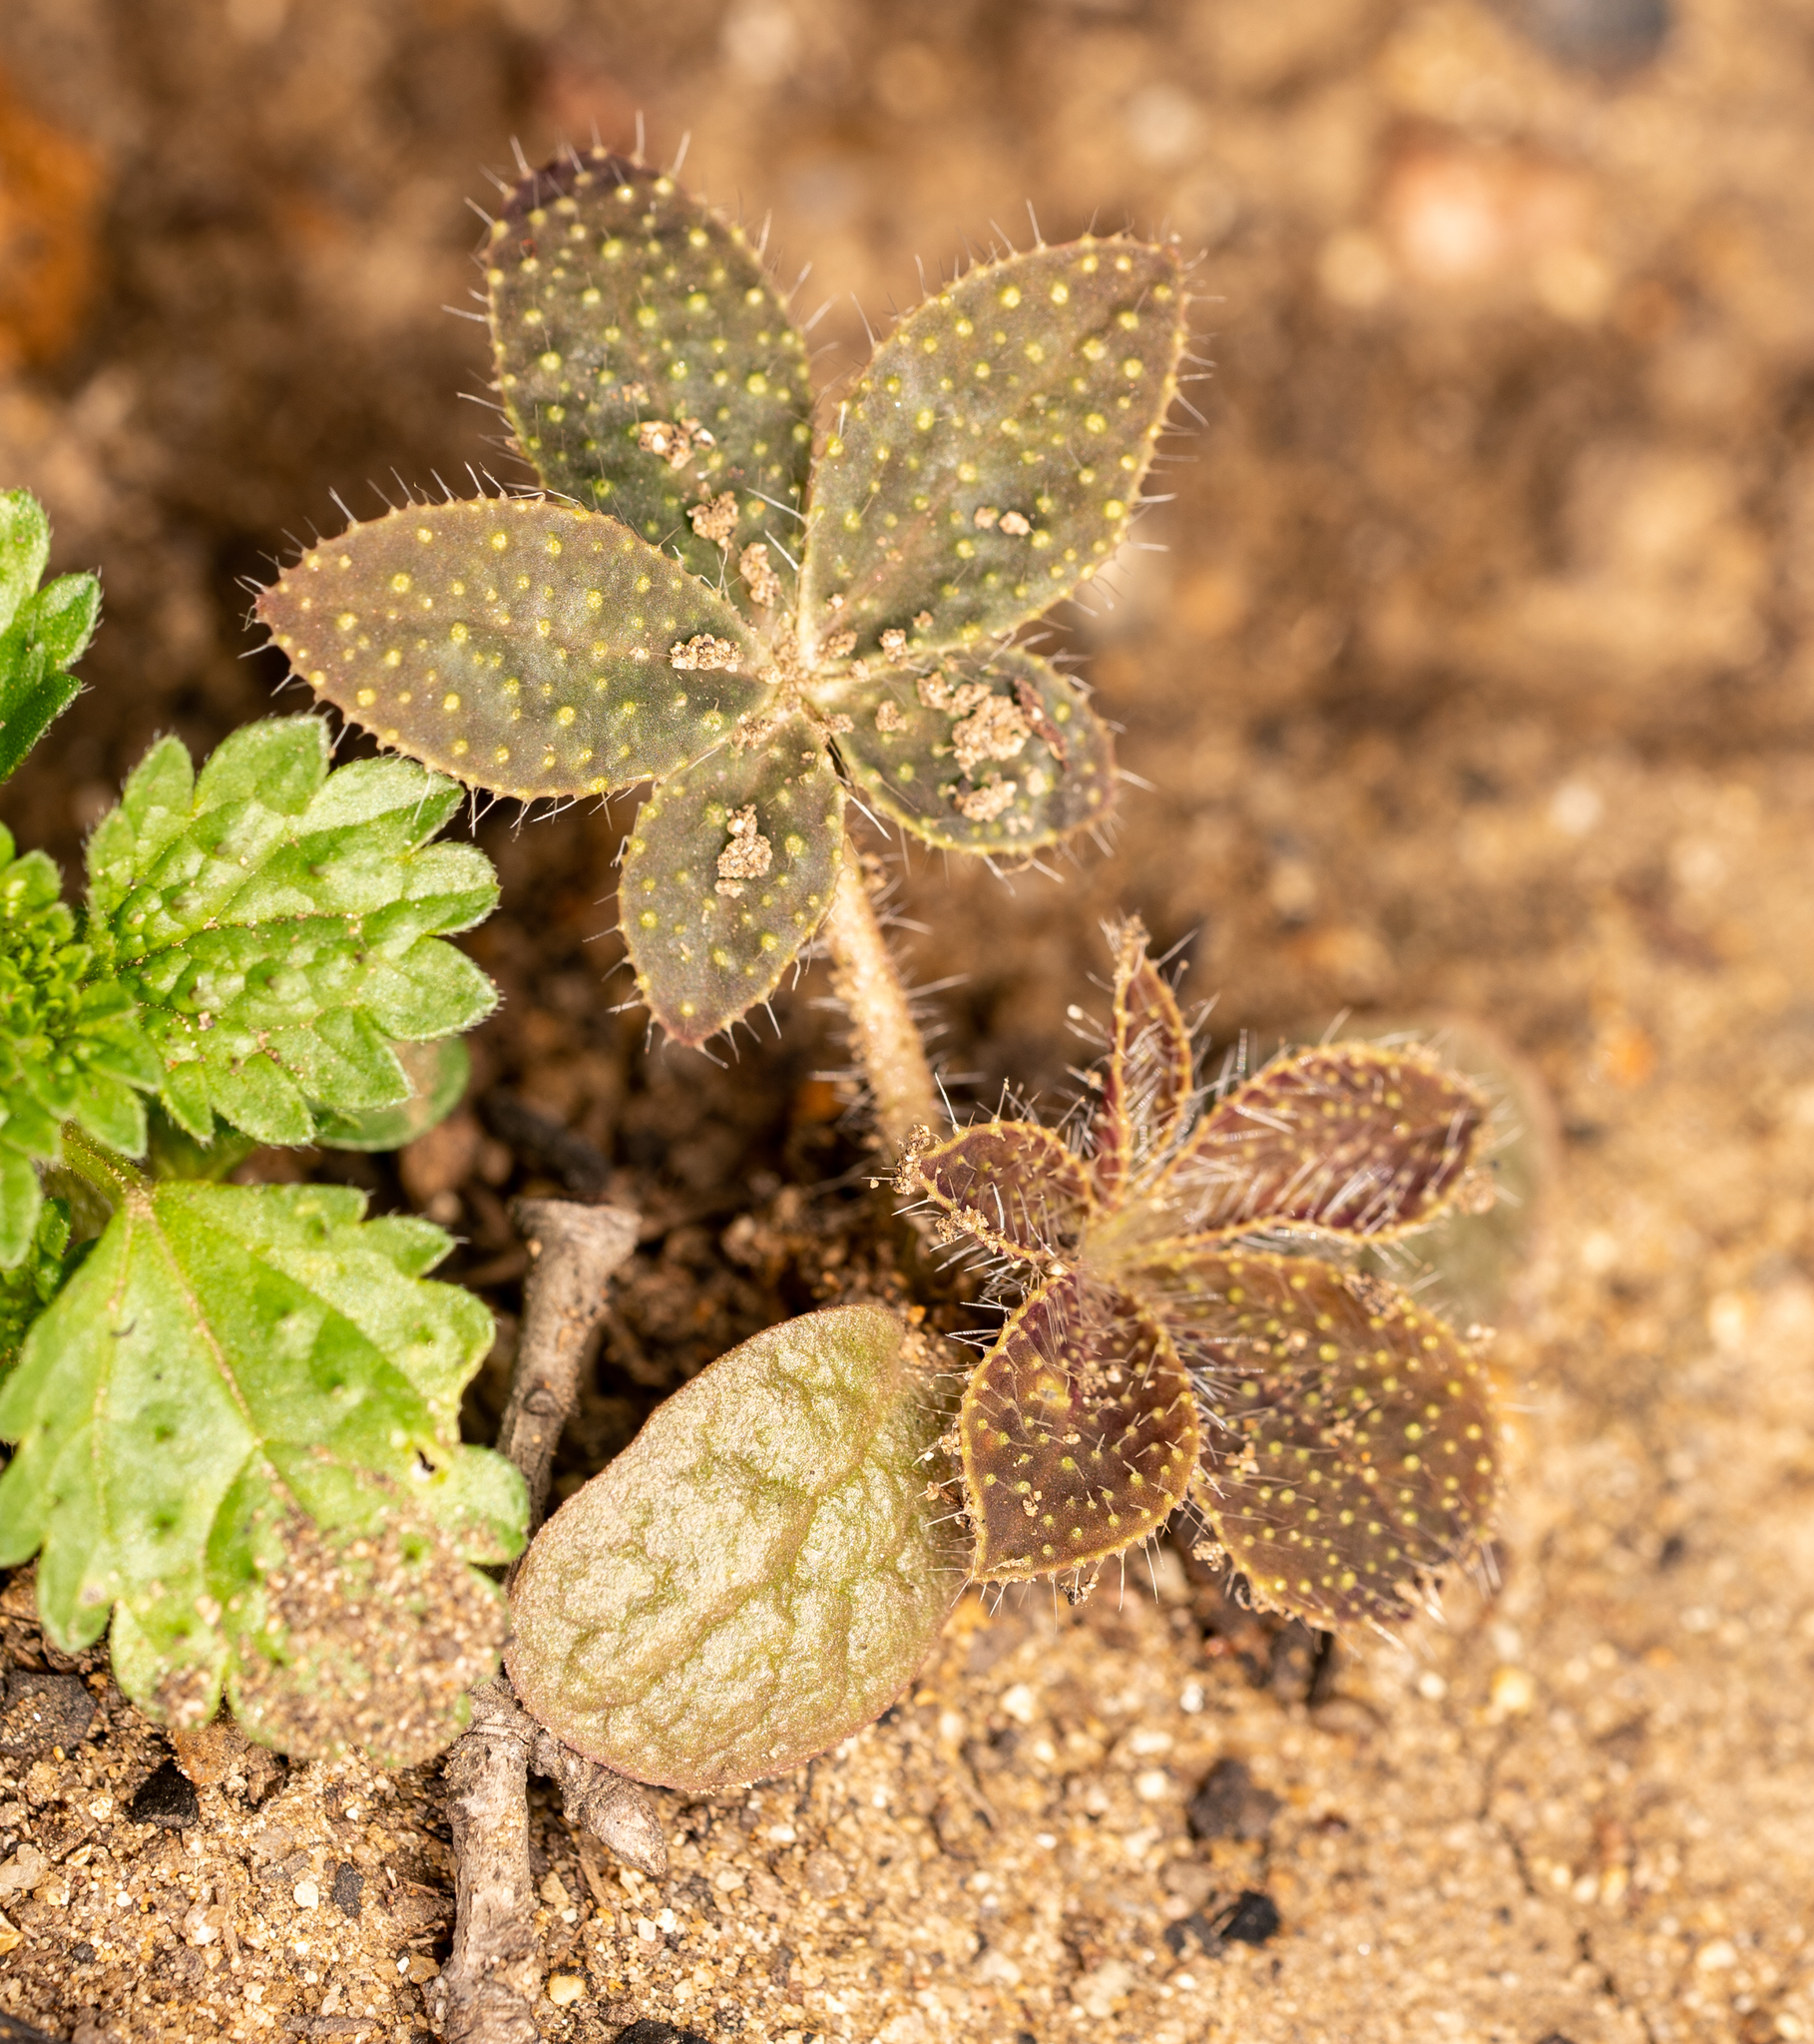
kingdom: Plantae
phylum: Tracheophyta
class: Magnoliopsida
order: Fabales
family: Fabaceae
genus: Lupinus
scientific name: Lupinus hirsutissimus
